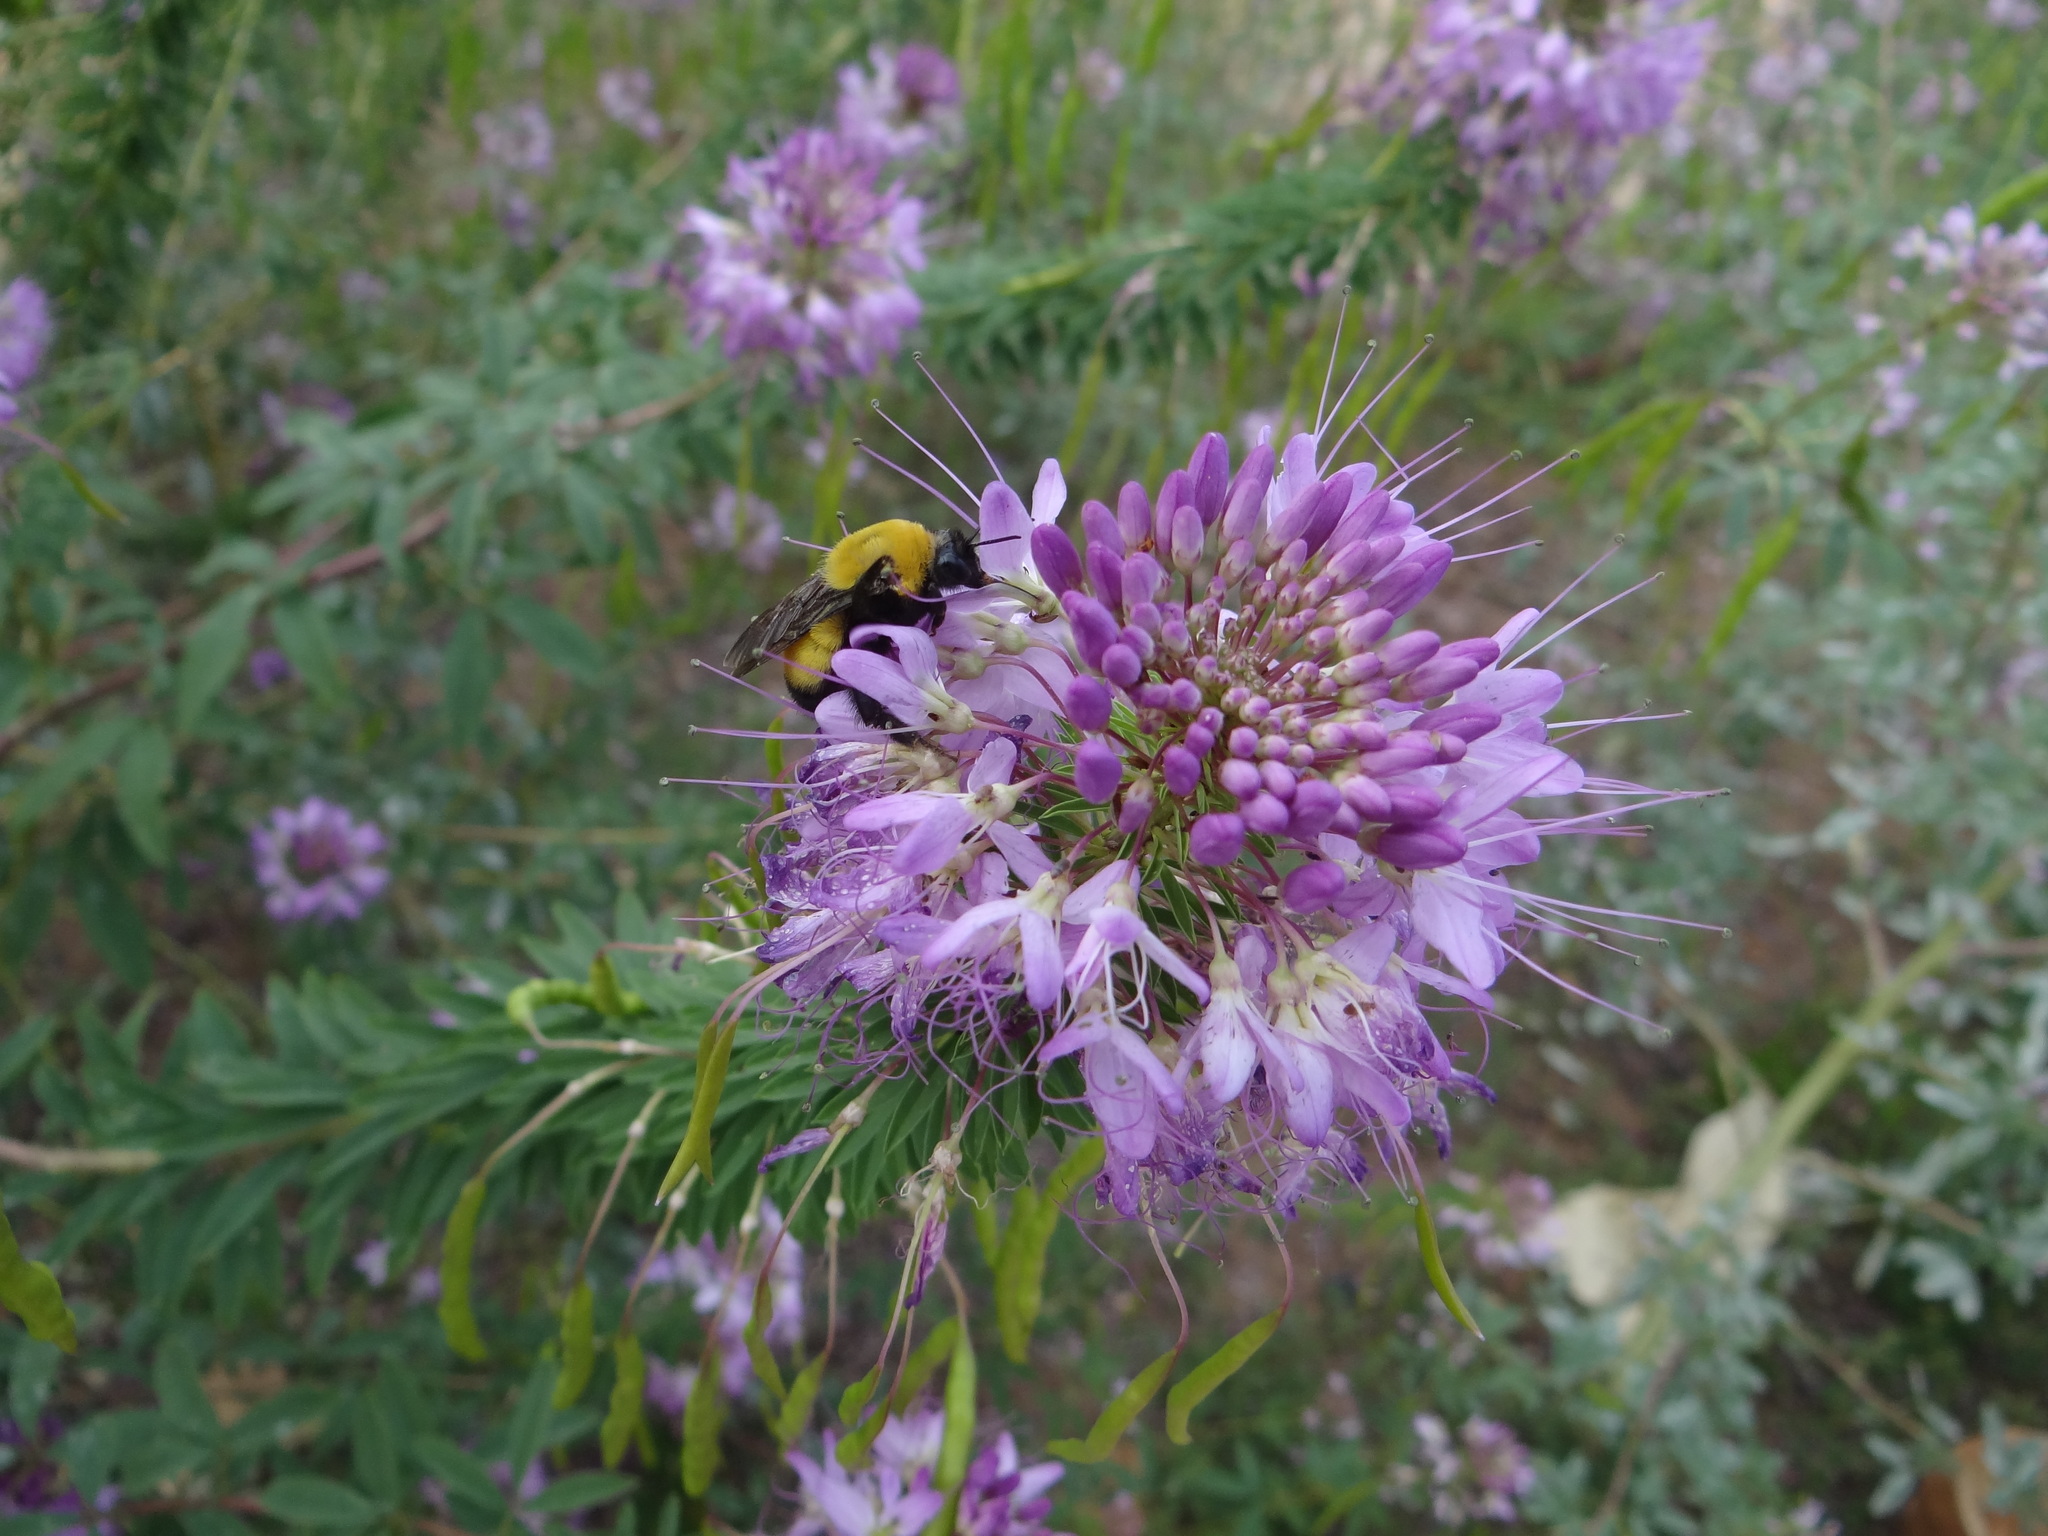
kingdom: Animalia
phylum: Arthropoda
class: Insecta
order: Hymenoptera
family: Apidae
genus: Bombus
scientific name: Bombus morrisoni
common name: Morrison bumble bee
